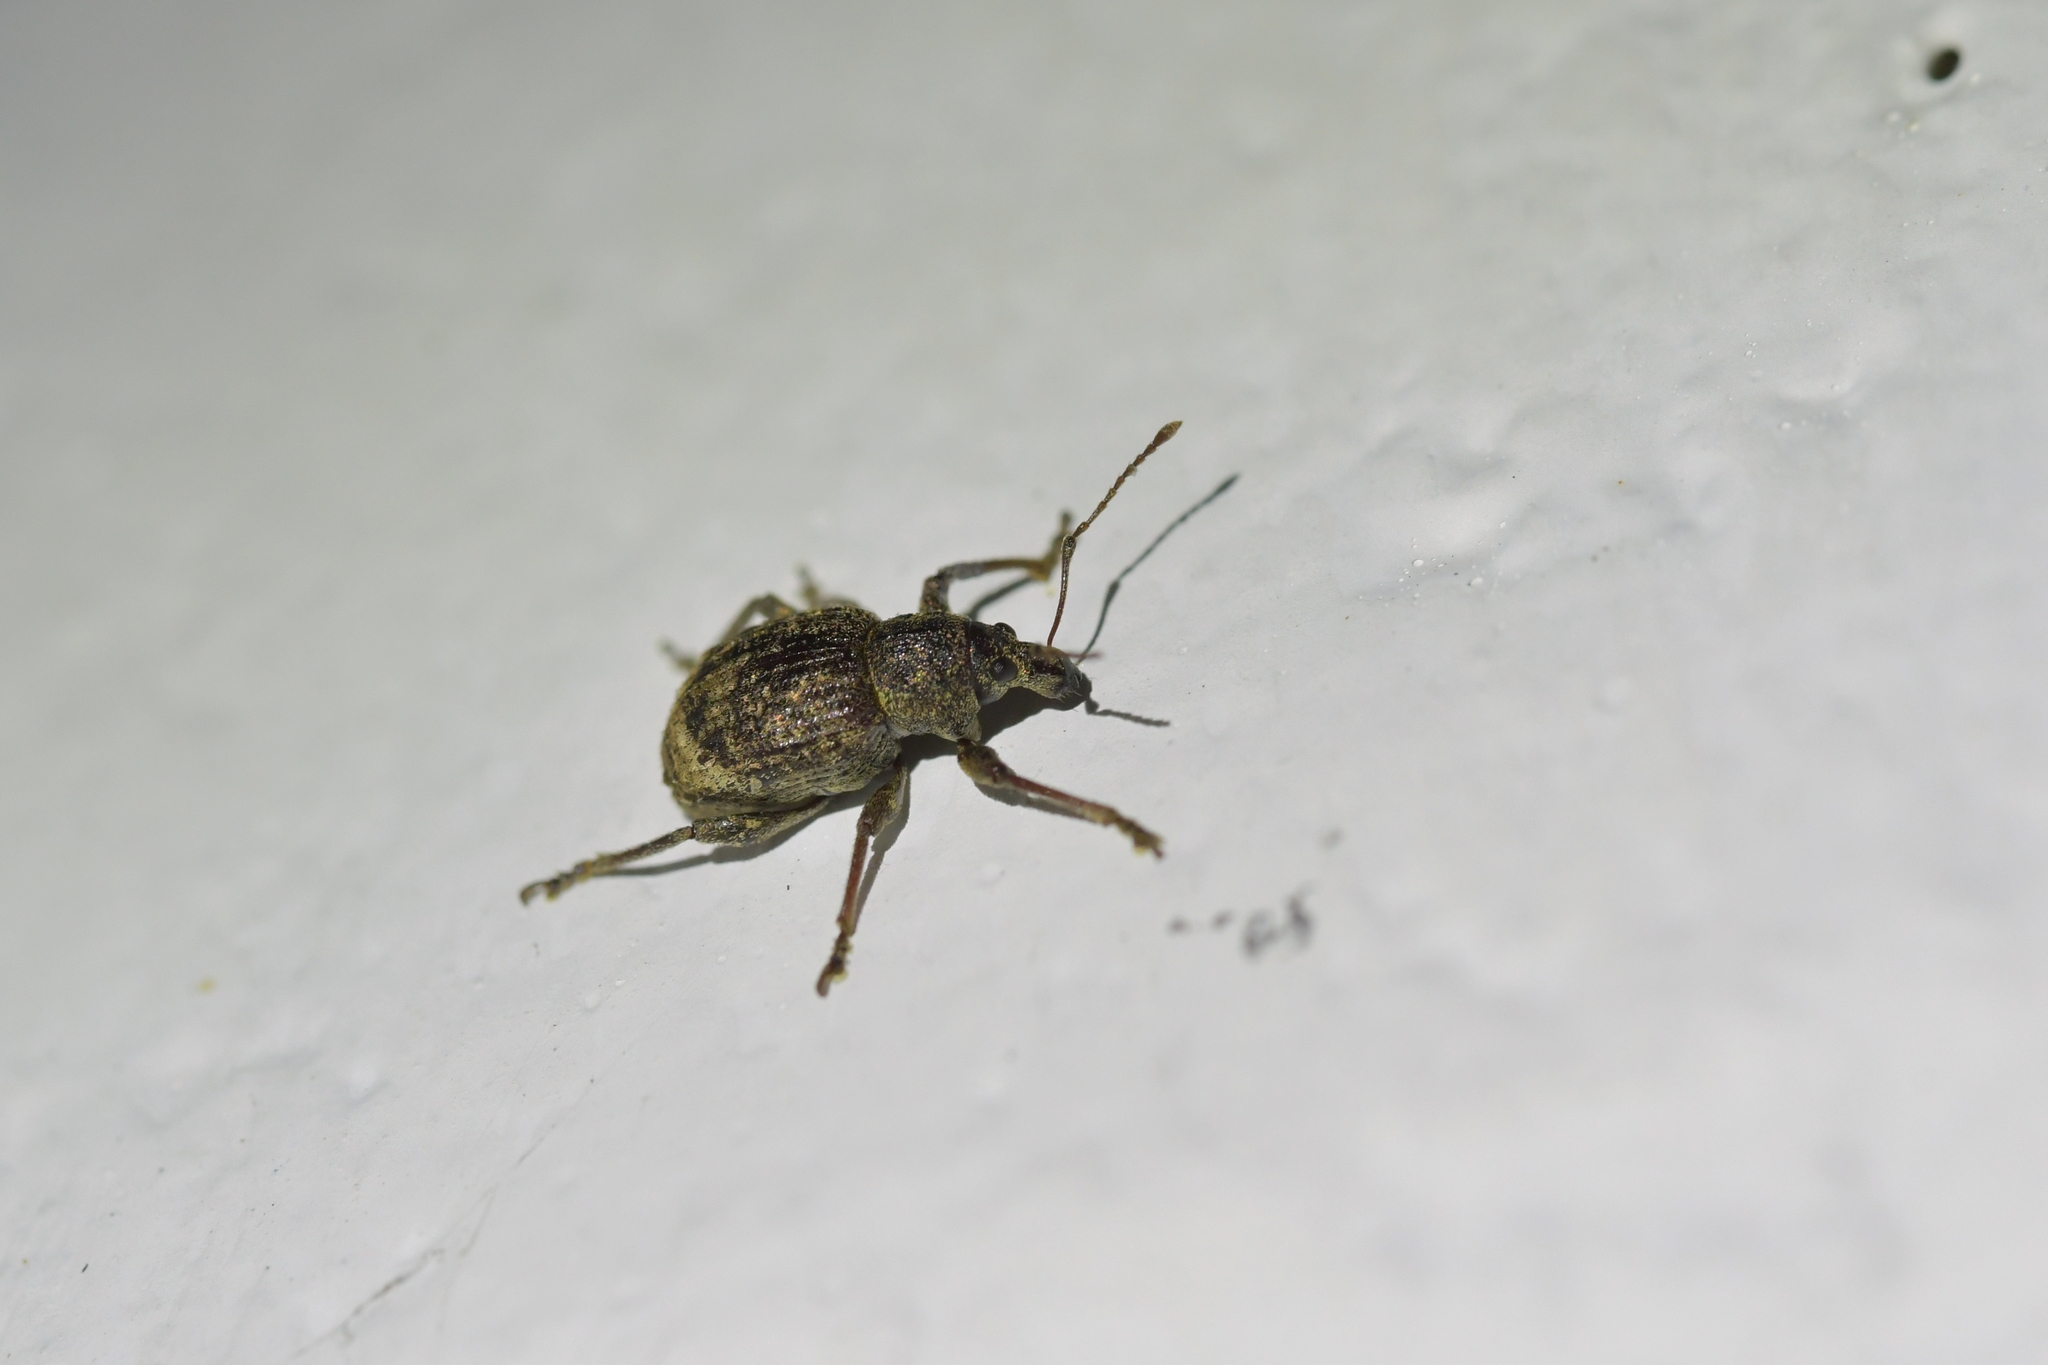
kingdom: Animalia
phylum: Arthropoda
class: Insecta
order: Coleoptera
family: Curculionidae
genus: Phlyctinus
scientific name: Phlyctinus callosus
